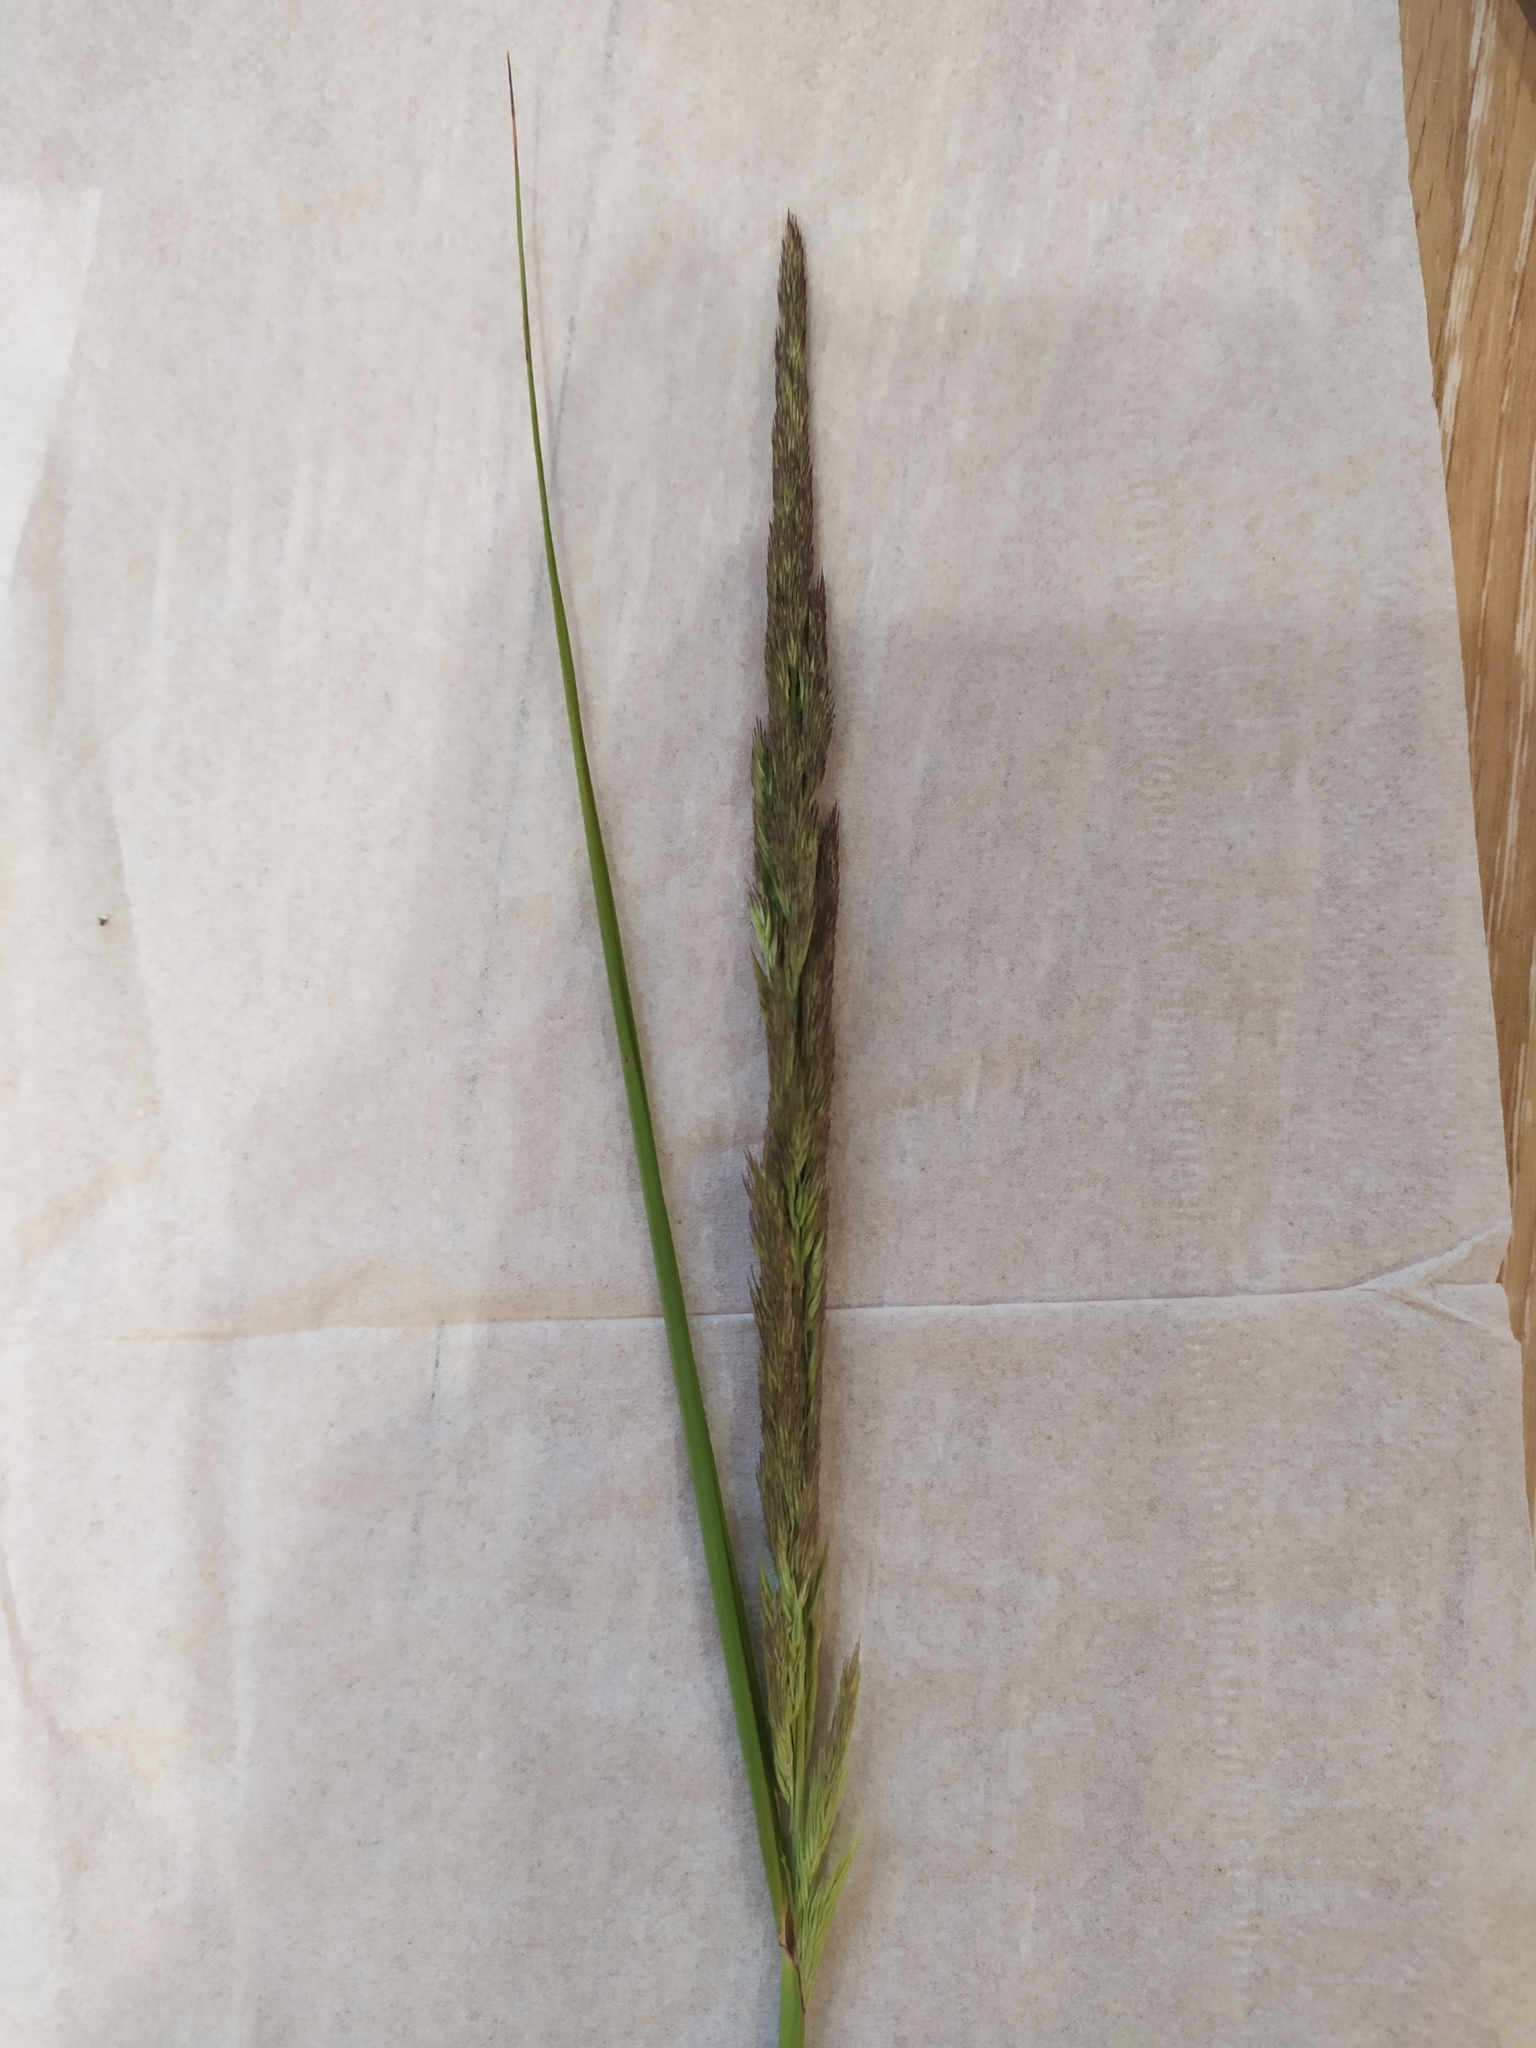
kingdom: Plantae
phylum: Tracheophyta
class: Liliopsida
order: Poales
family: Poaceae
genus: Calamagrostis
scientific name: Calamagrostis epigejos
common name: Wood small-reed
